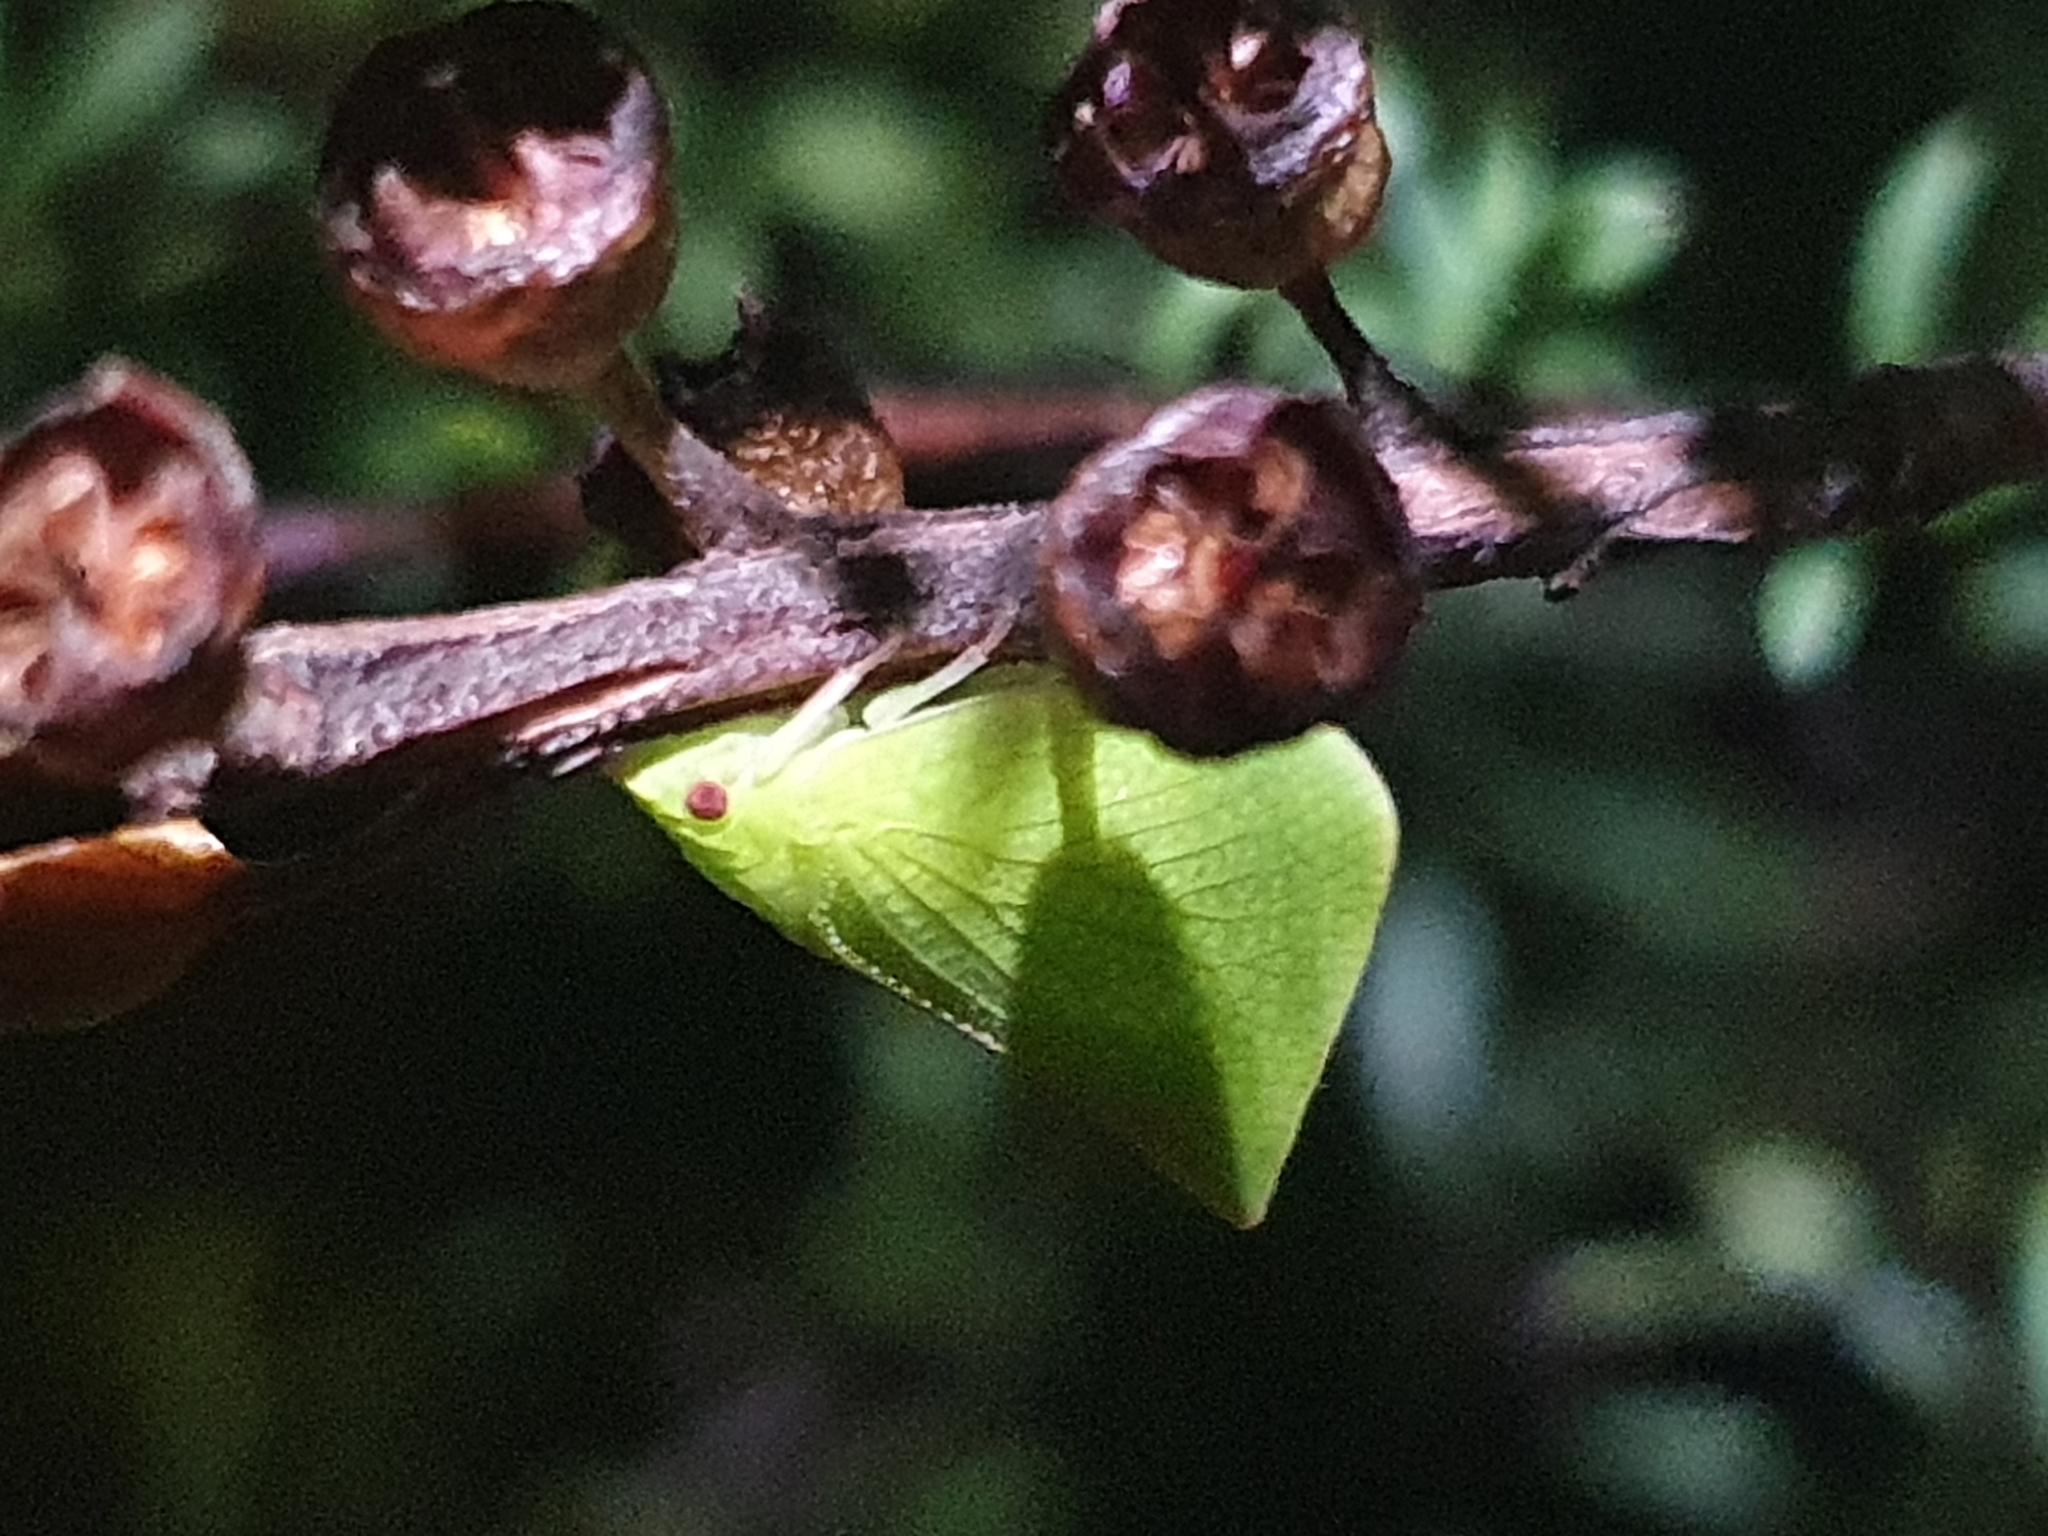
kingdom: Animalia
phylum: Arthropoda
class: Insecta
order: Hemiptera
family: Flatidae
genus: Siphanta
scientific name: Siphanta acuta
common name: Torpedo bug
